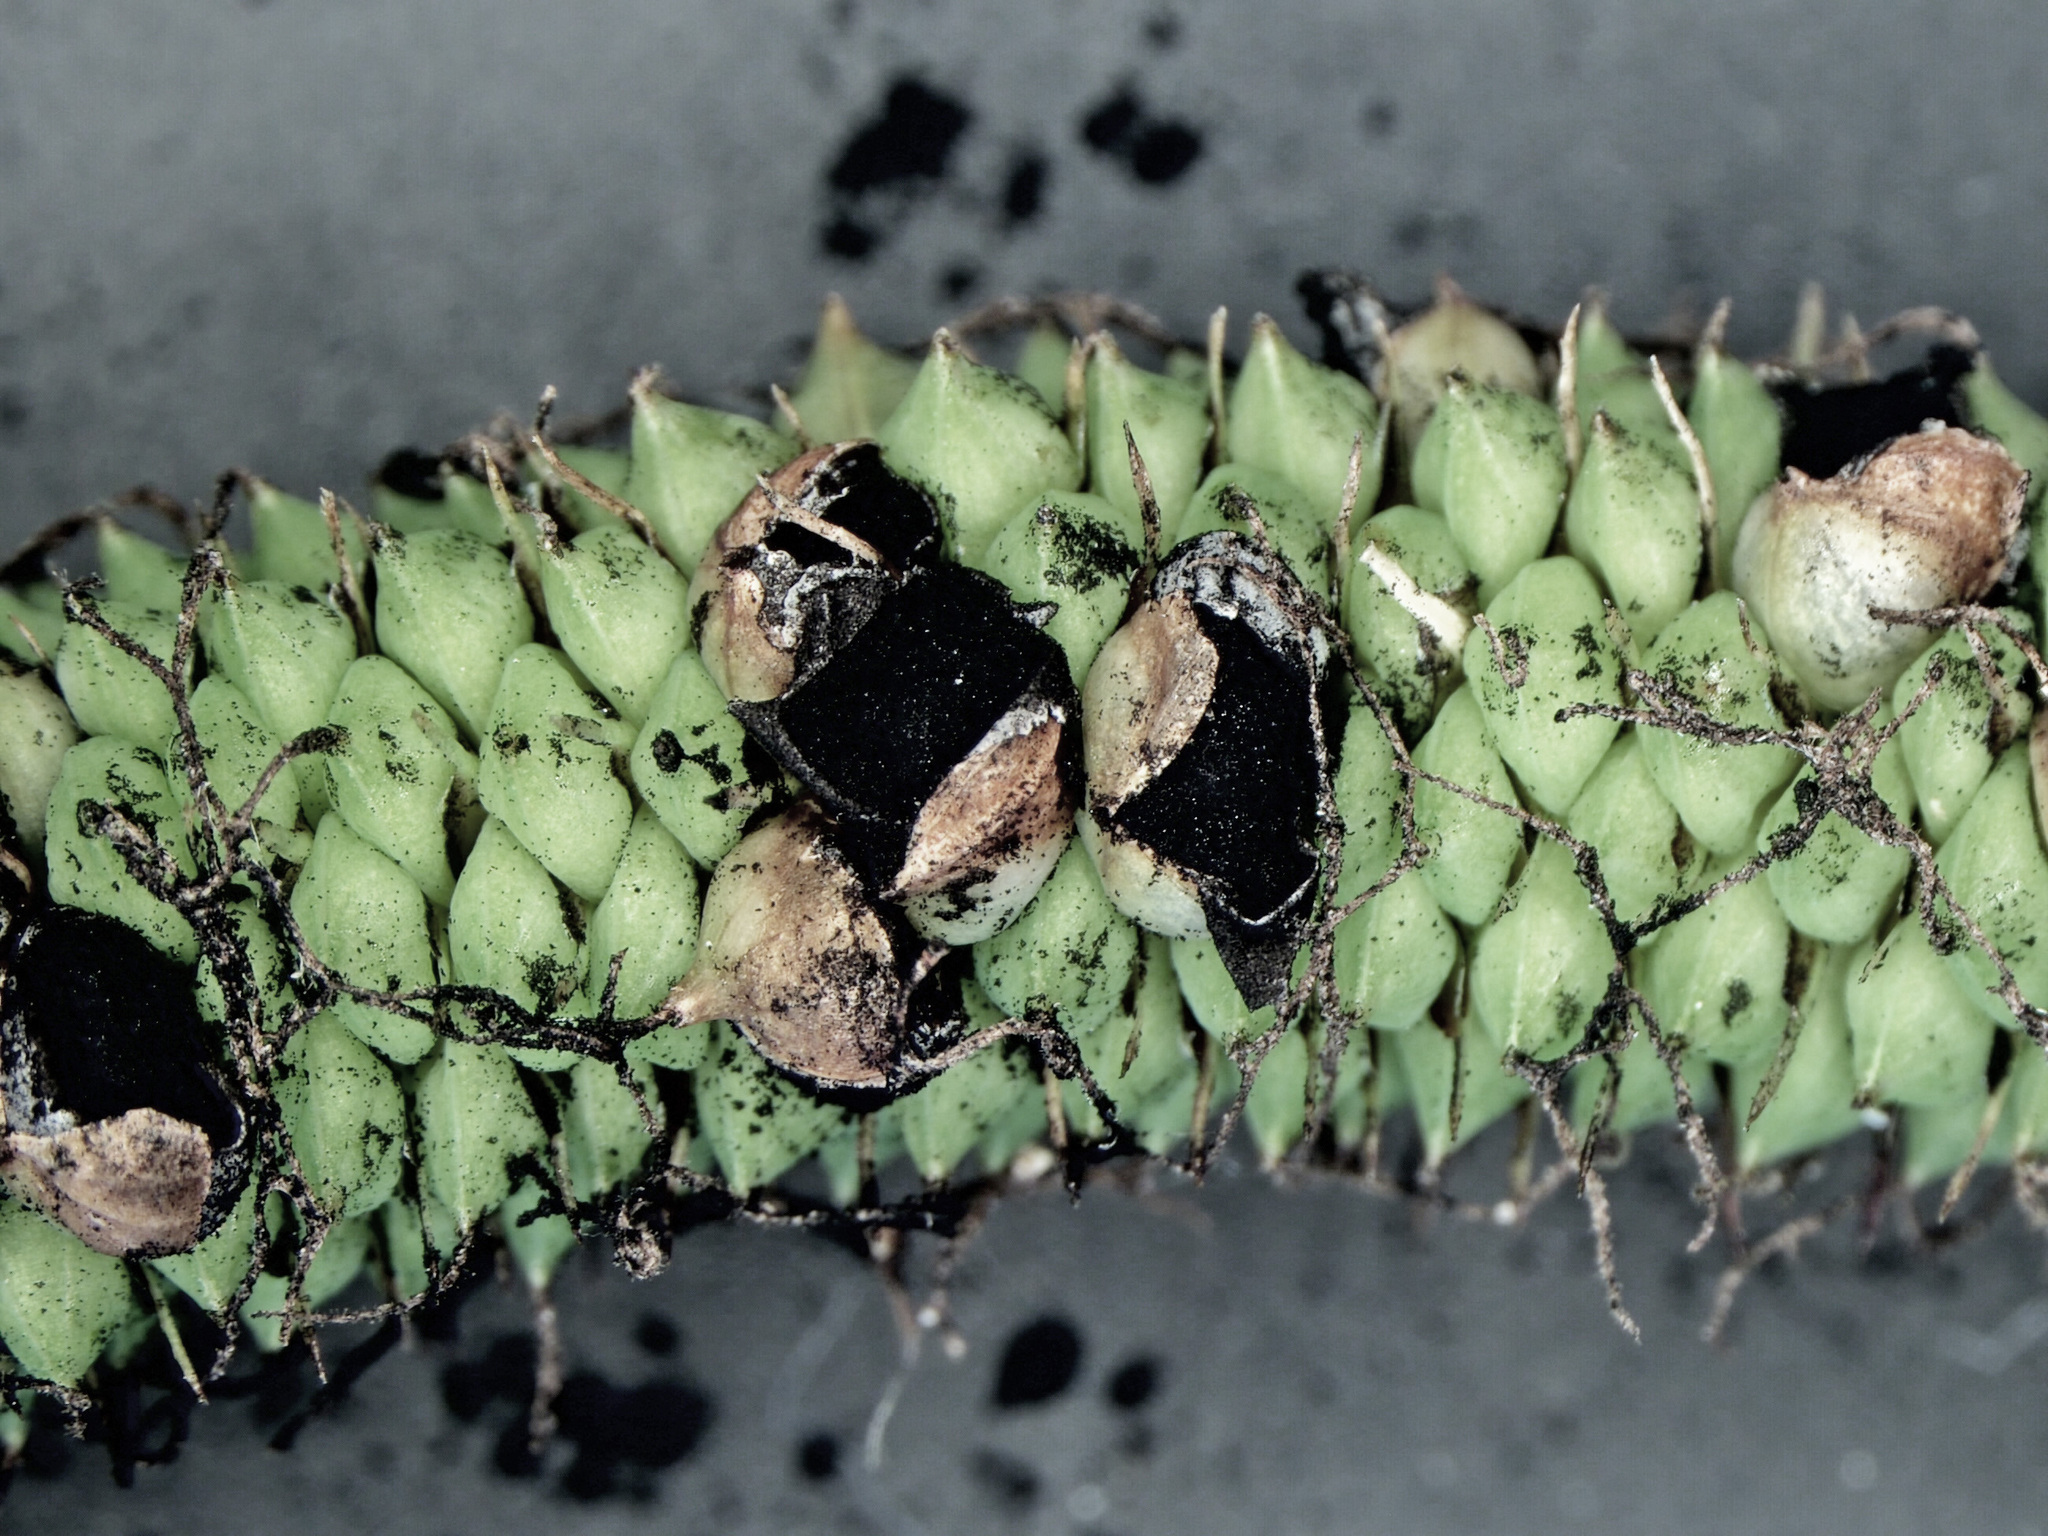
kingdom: Fungi
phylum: Basidiomycota
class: Ustilaginomycetes
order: Ustilaginales
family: Anthracoideaceae
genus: Anthracoidea
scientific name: Anthracoidea heterospora
